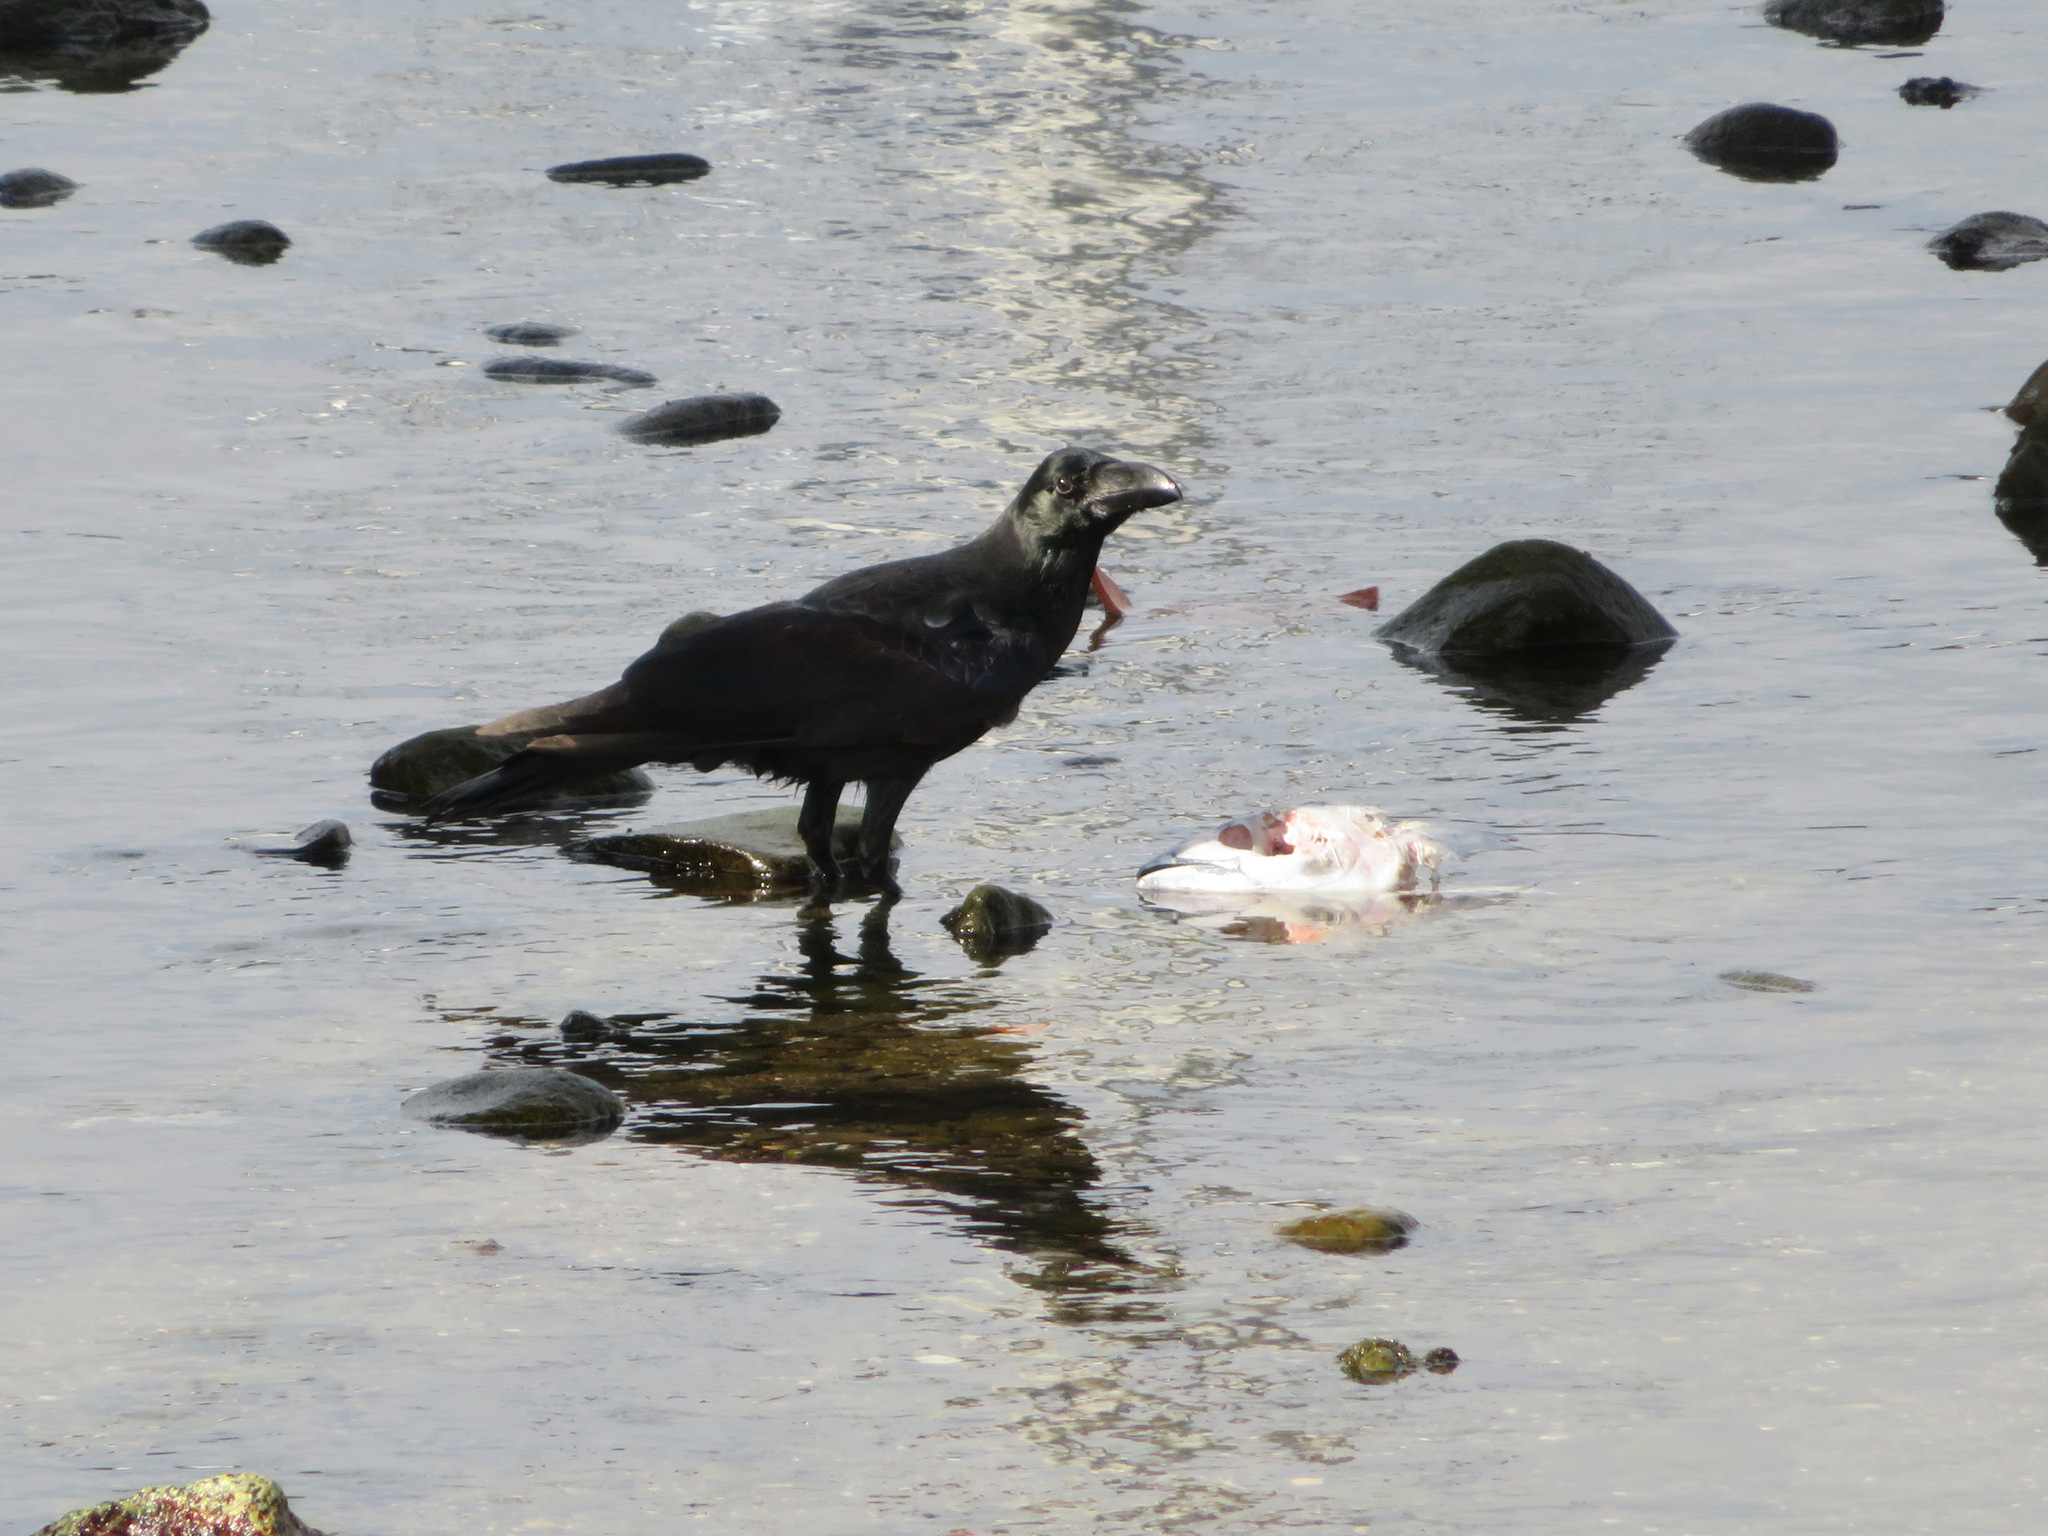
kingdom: Animalia
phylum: Chordata
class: Aves
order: Passeriformes
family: Corvidae
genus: Corvus
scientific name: Corvus macrorhynchos
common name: Large-billed crow
